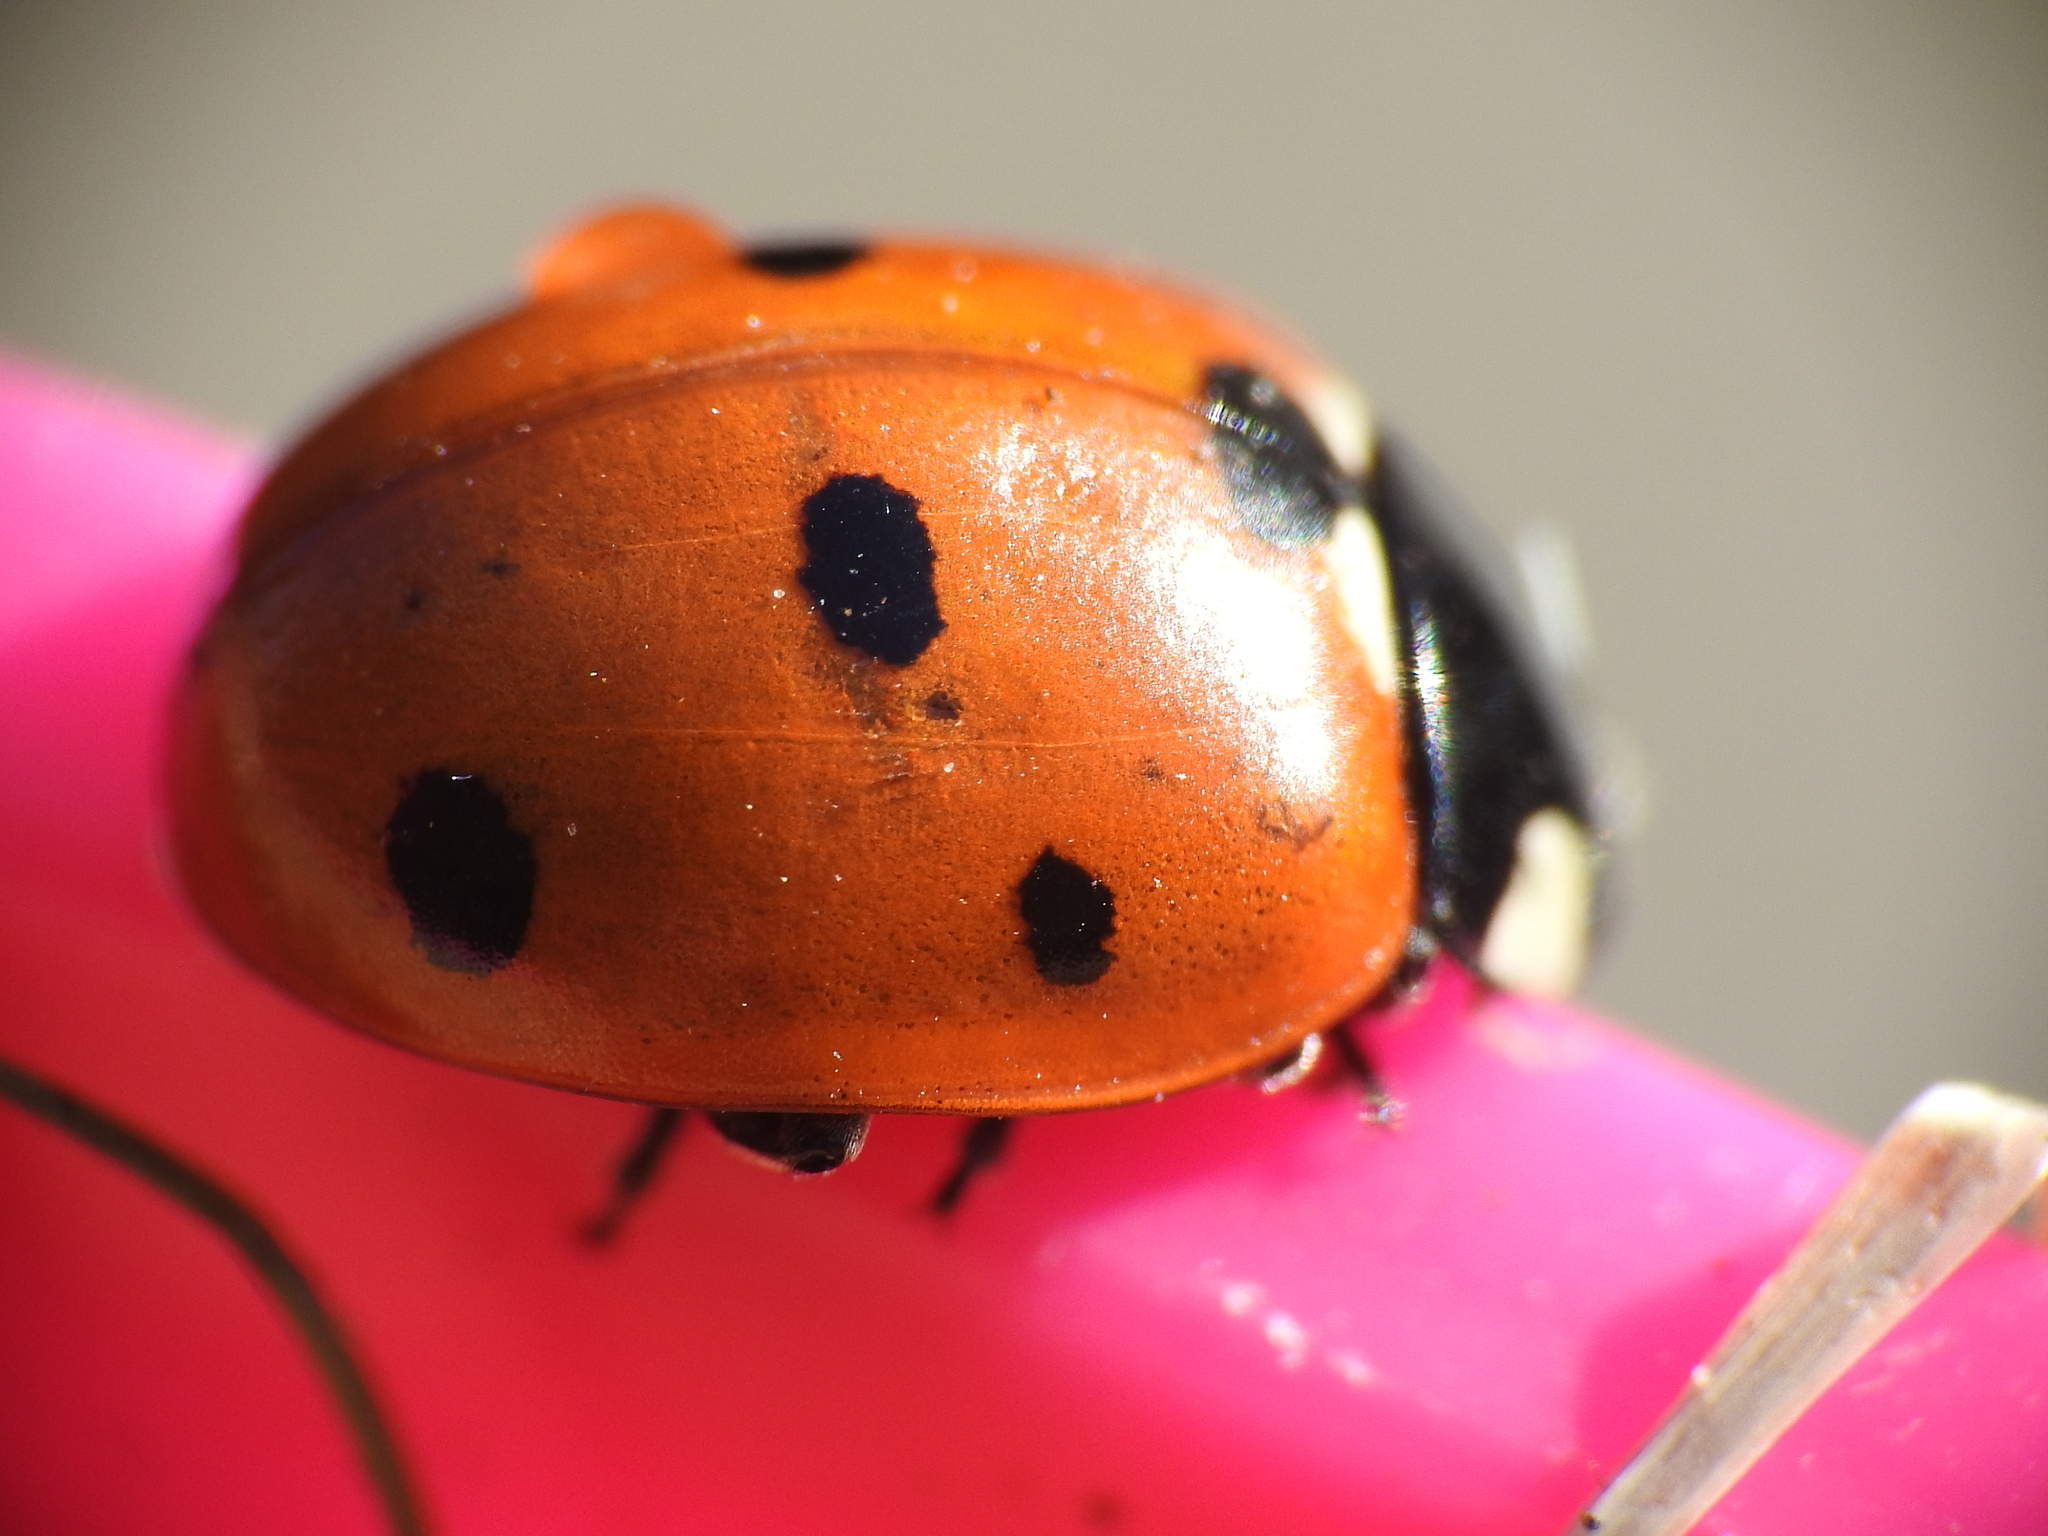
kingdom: Animalia
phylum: Arthropoda
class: Insecta
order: Coleoptera
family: Coccinellidae
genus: Coccinella
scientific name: Coccinella septempunctata
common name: Sevenspotted lady beetle
